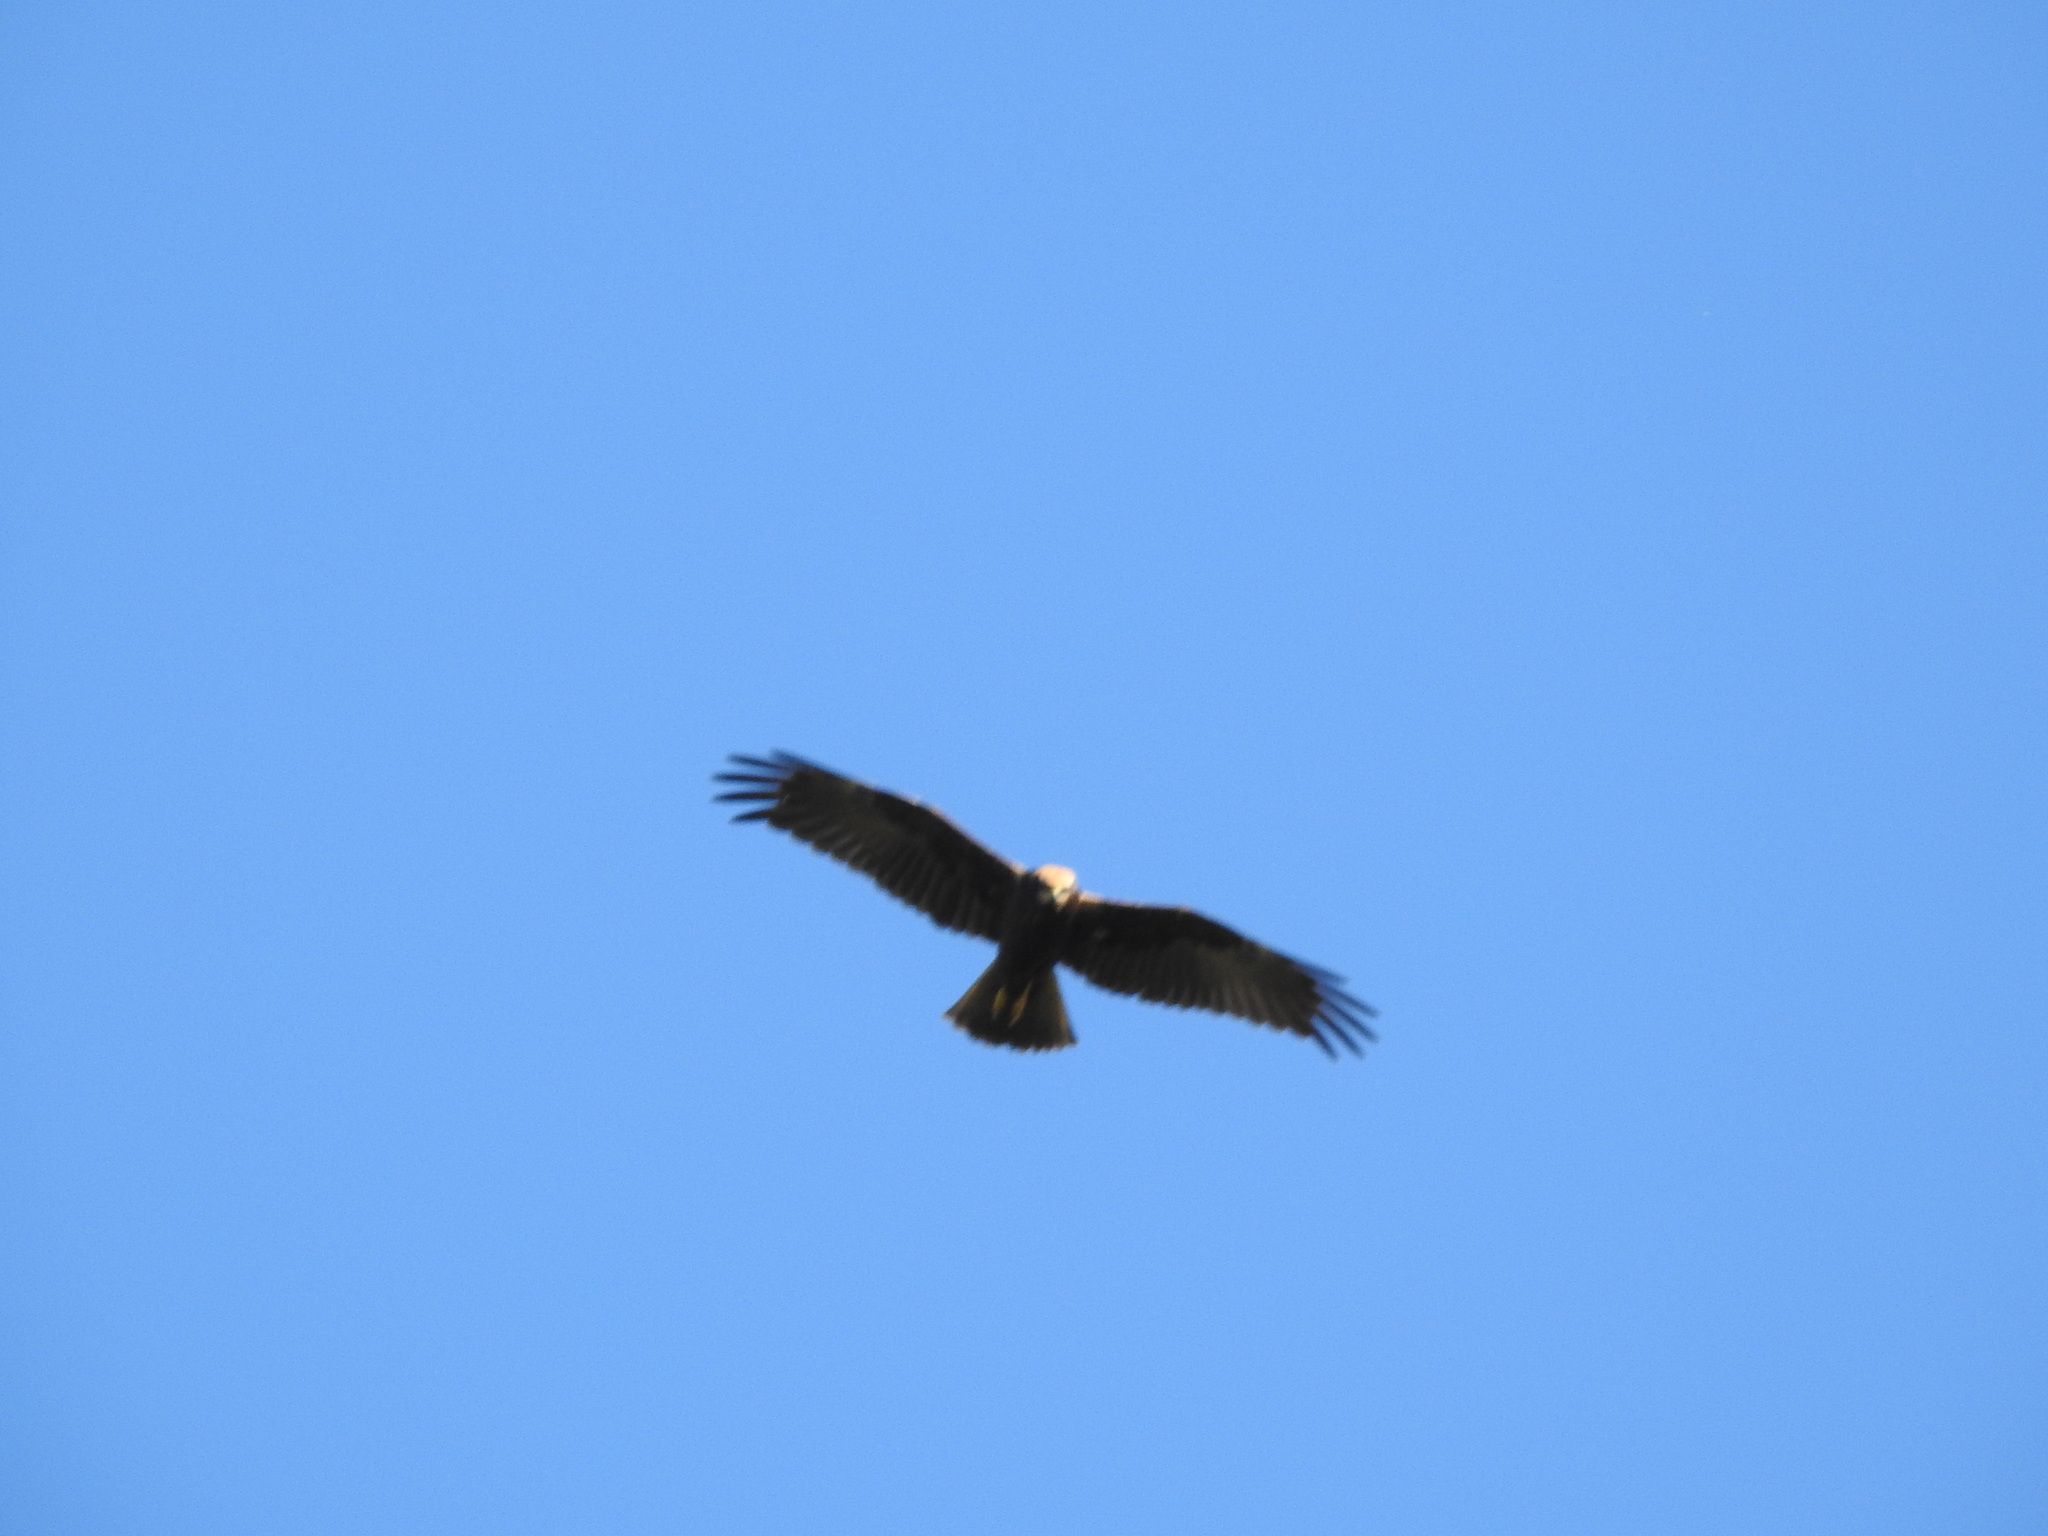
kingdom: Animalia
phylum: Chordata
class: Aves
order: Accipitriformes
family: Accipitridae
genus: Circus
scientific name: Circus aeruginosus
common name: Western marsh harrier
